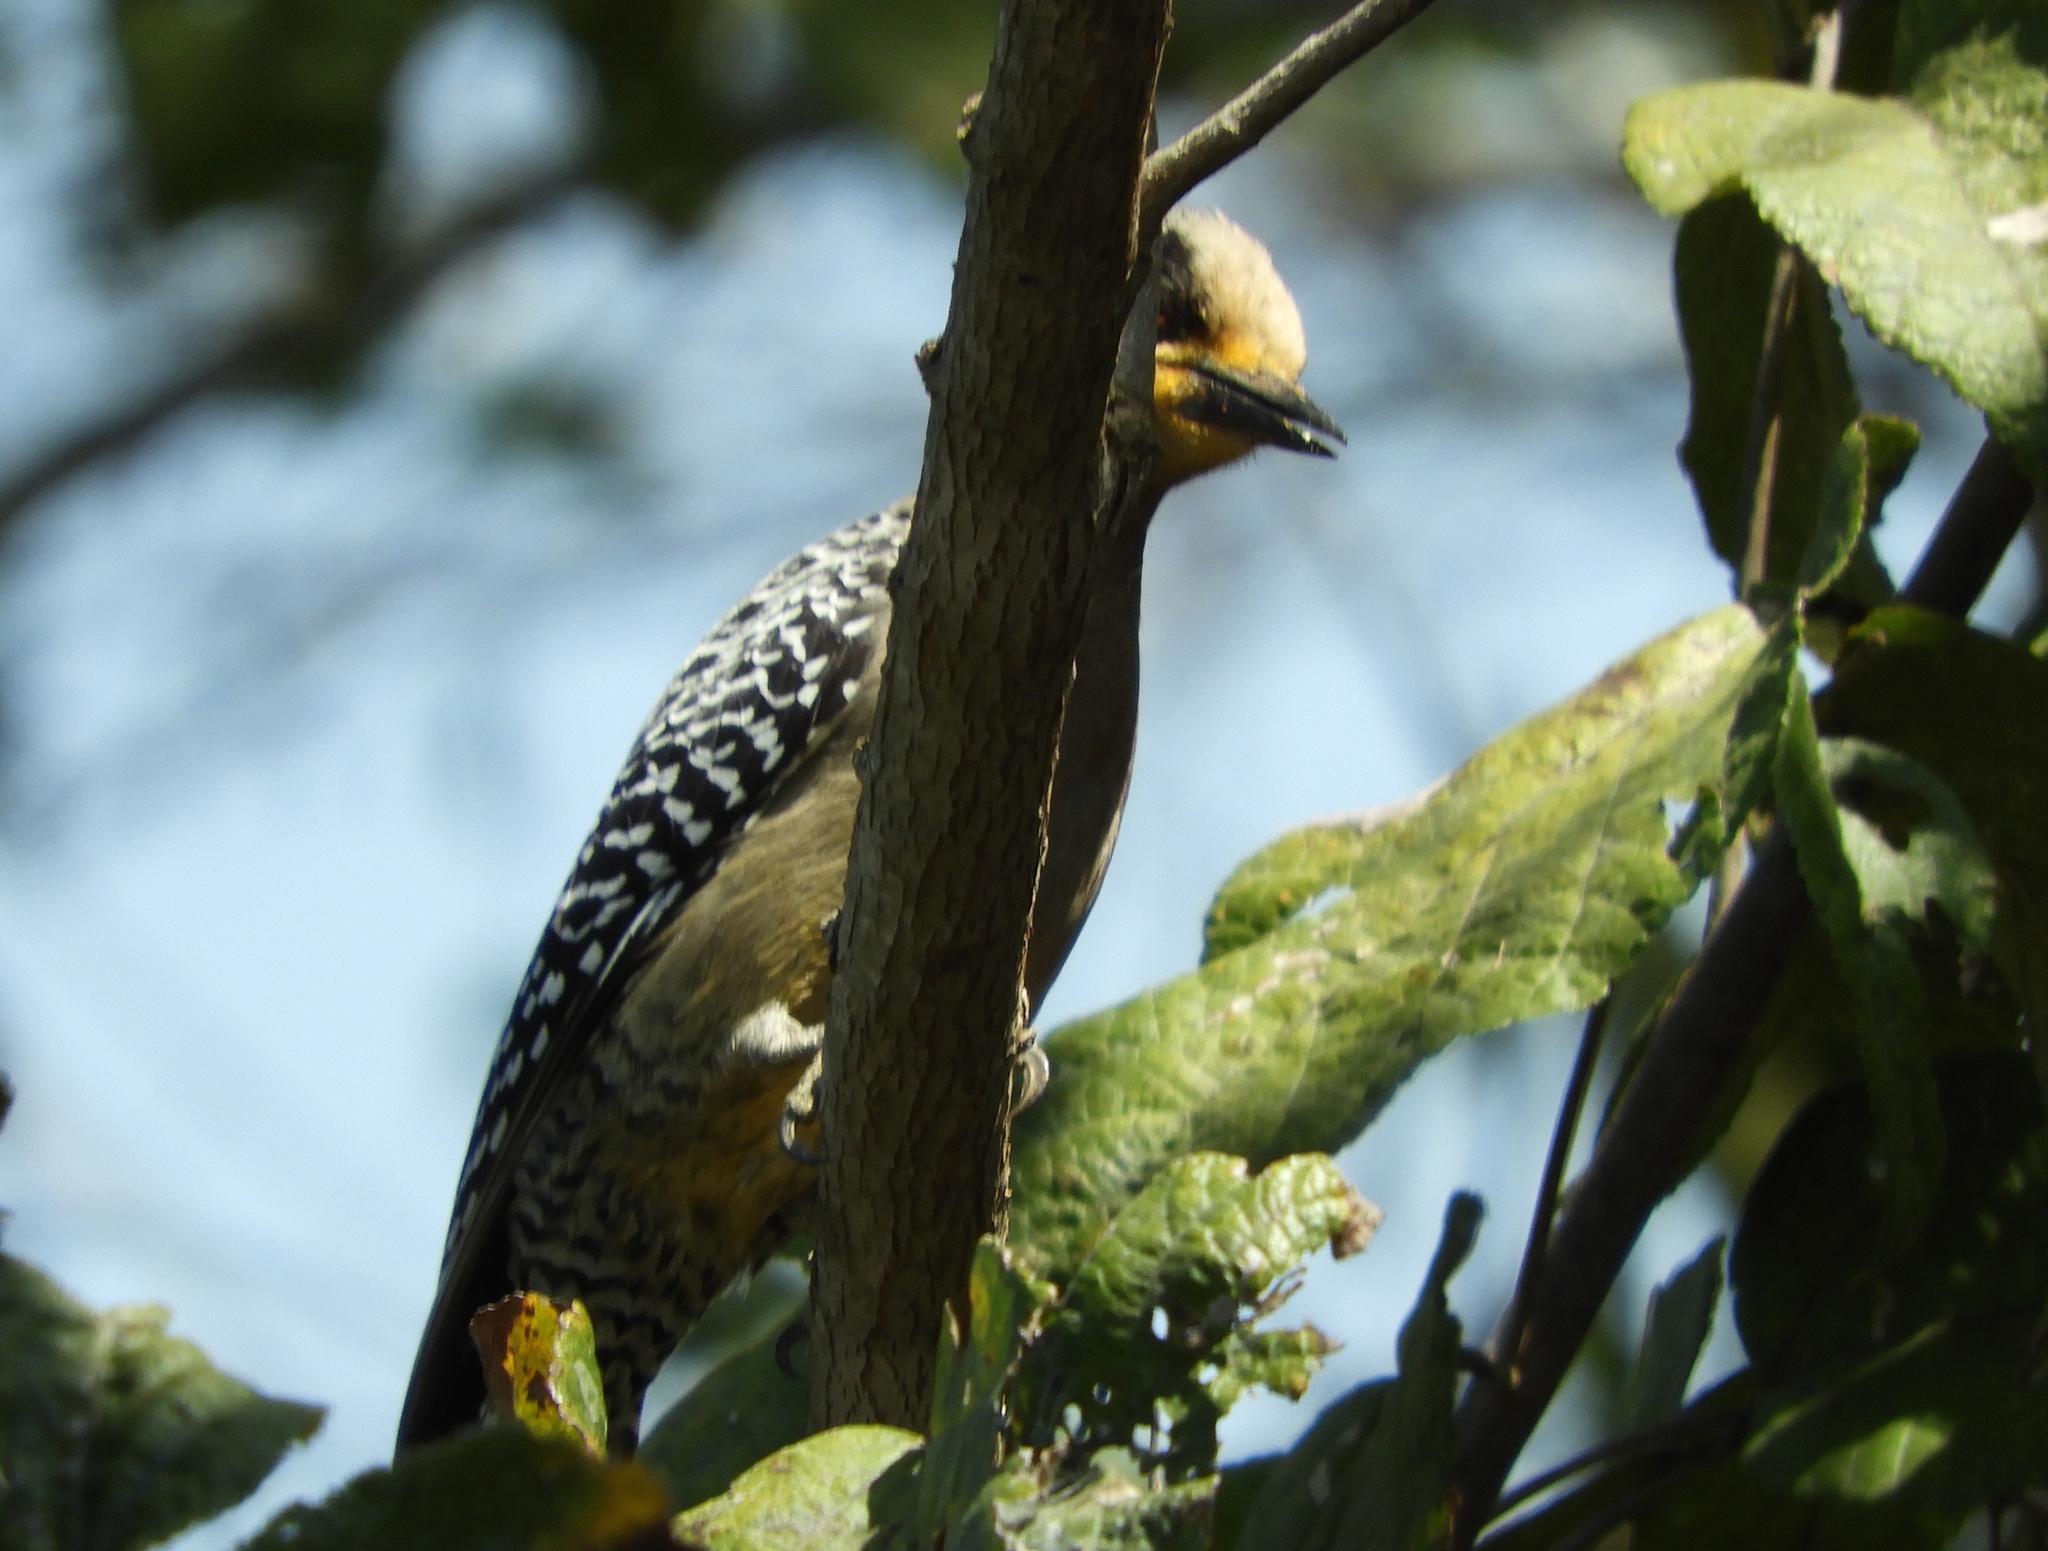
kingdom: Animalia
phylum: Chordata
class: Aves
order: Piciformes
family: Picidae
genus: Melanerpes
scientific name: Melanerpes chrysogenys
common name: Golden-cheeked woodpecker
